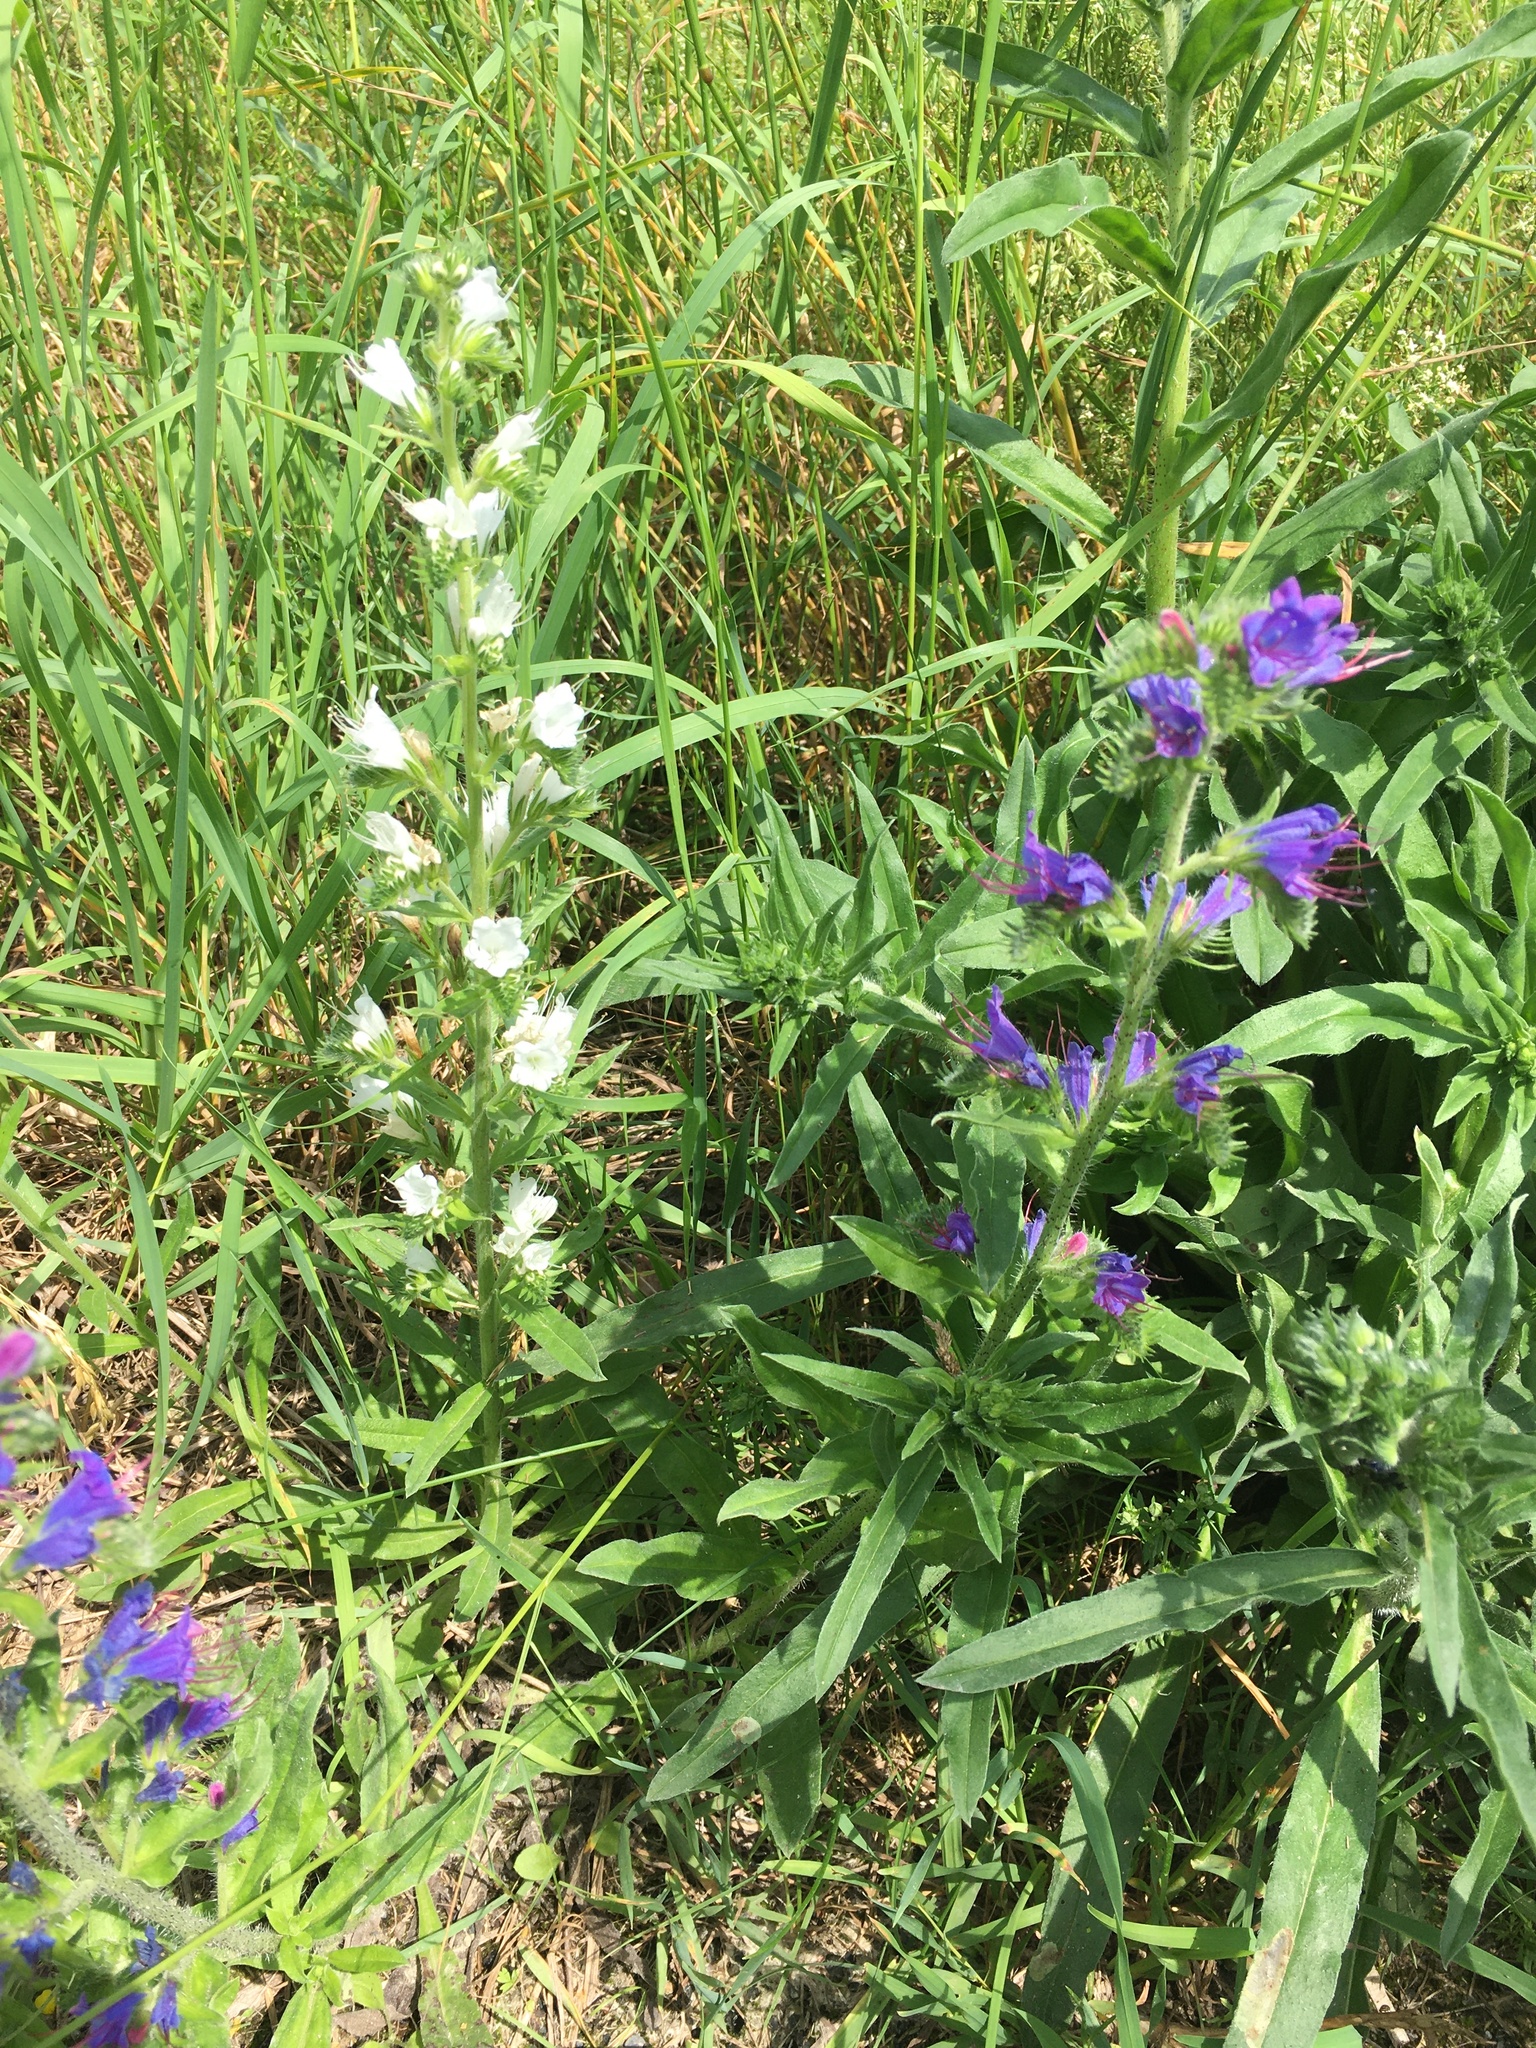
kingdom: Plantae
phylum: Tracheophyta
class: Magnoliopsida
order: Boraginales
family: Boraginaceae
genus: Echium
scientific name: Echium vulgare
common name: Common viper's bugloss
